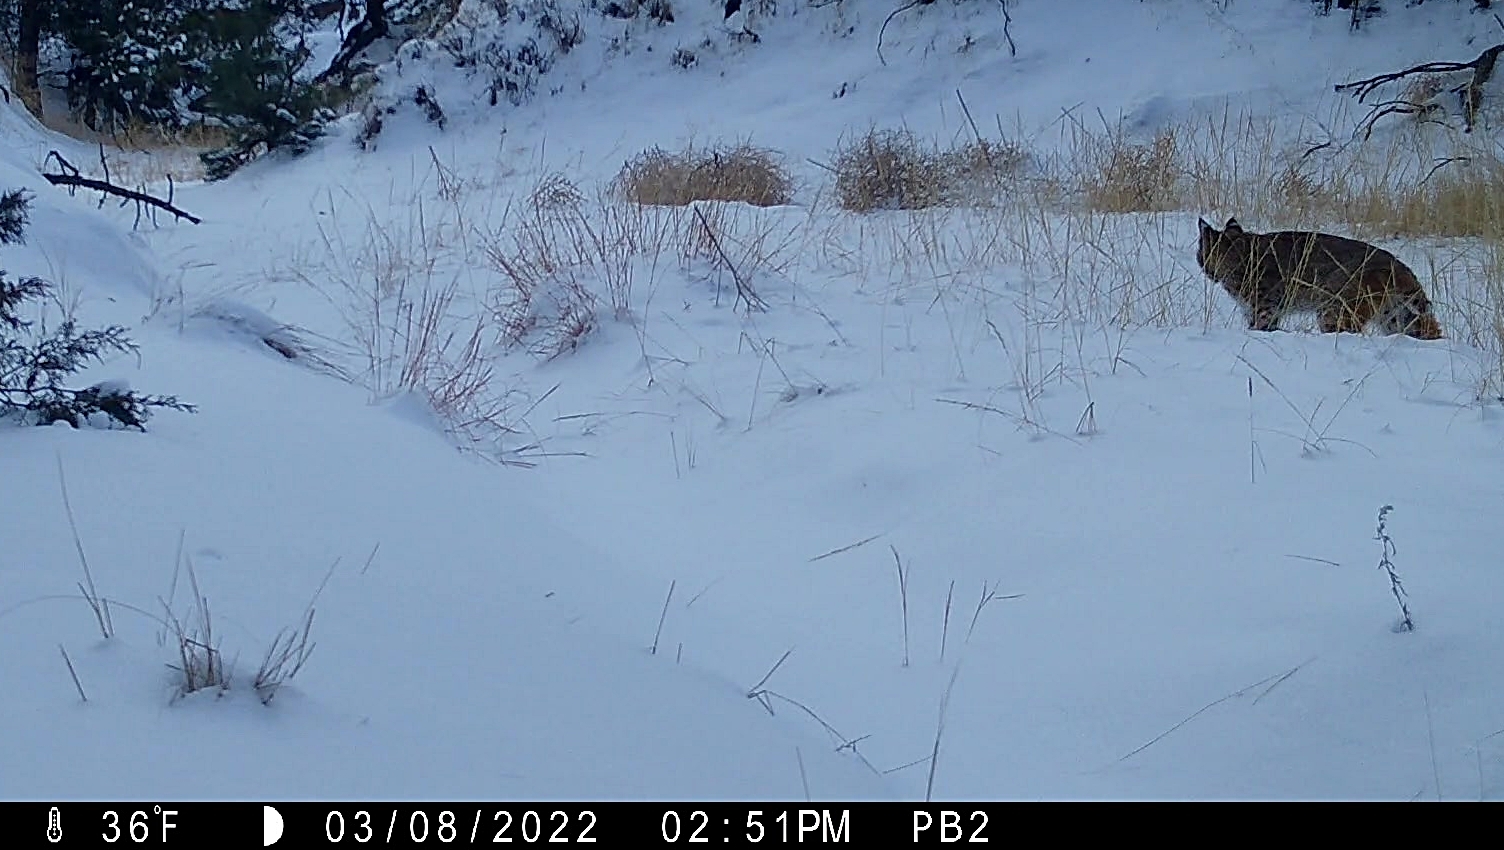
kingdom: Animalia
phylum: Chordata
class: Mammalia
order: Carnivora
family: Felidae
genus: Lynx
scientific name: Lynx rufus
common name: Bobcat
